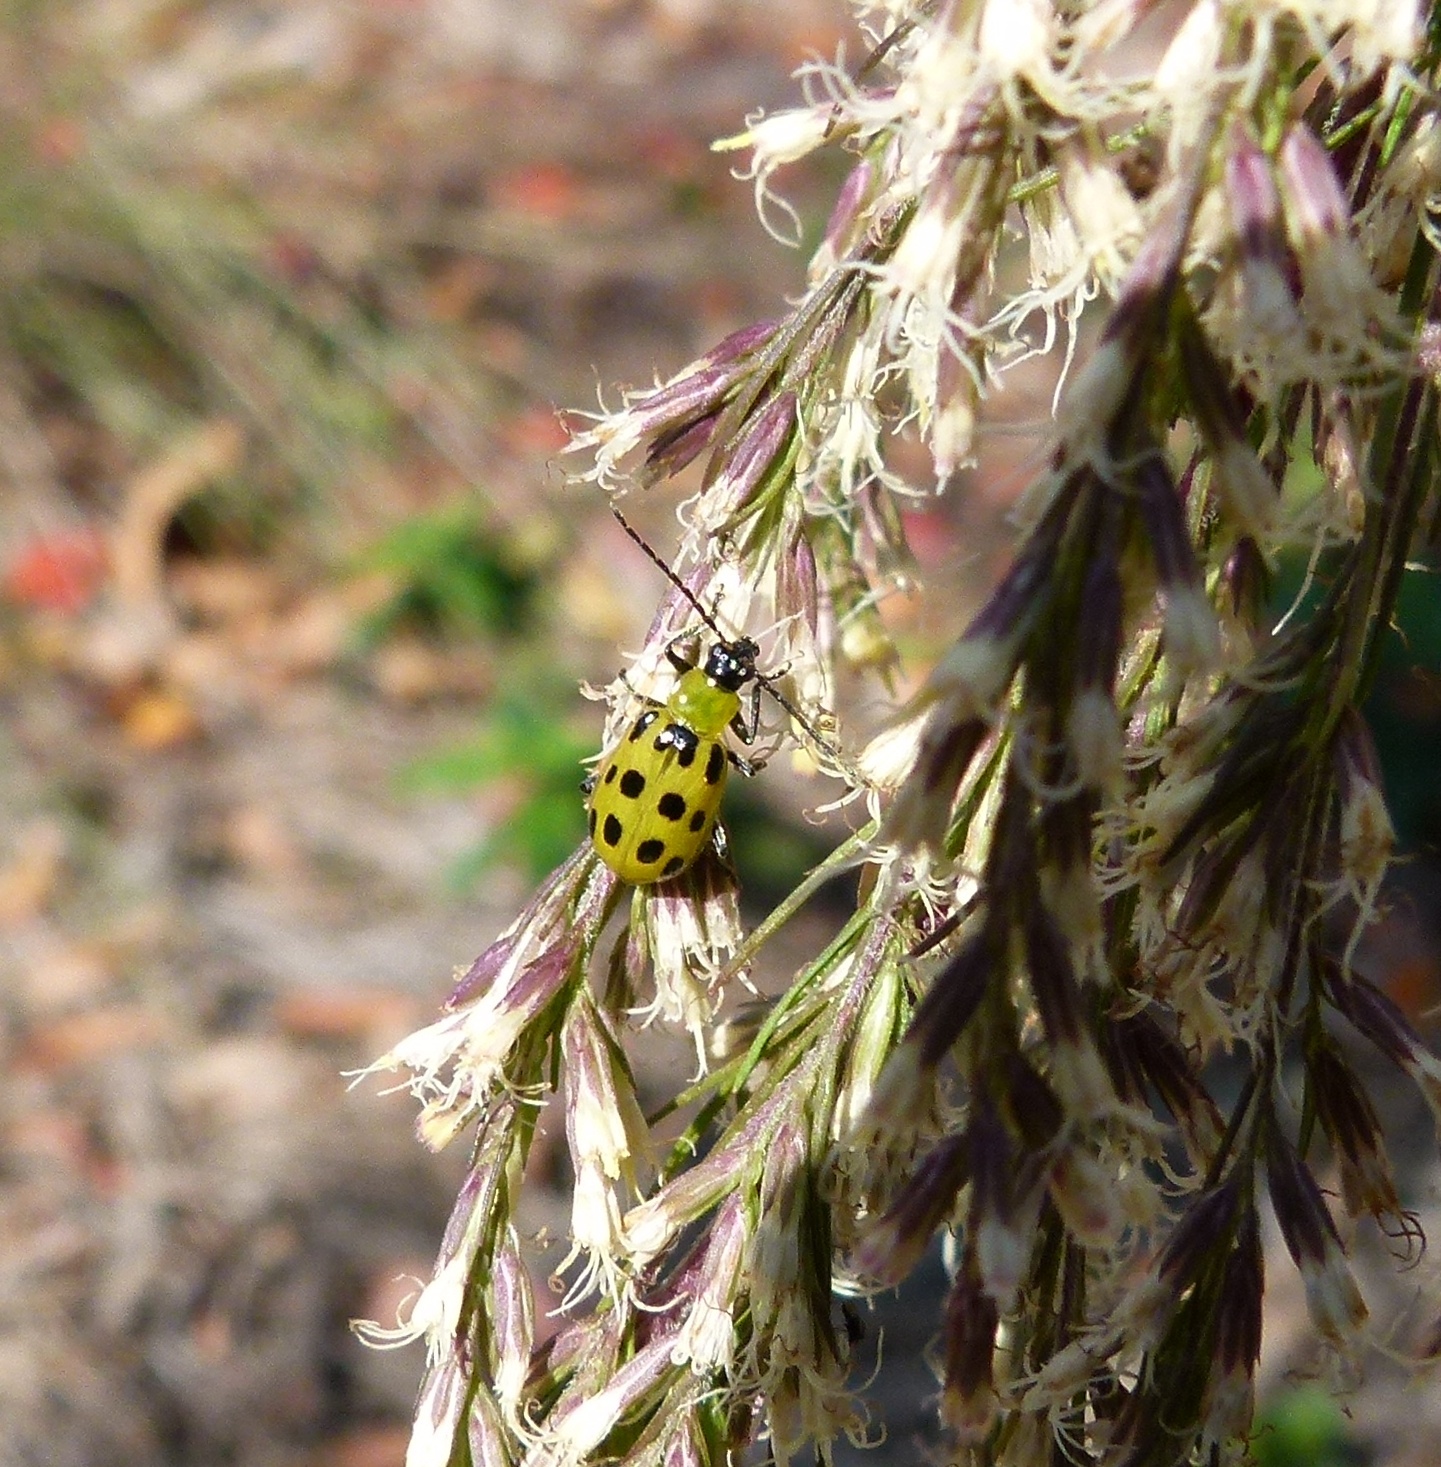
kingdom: Animalia
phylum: Arthropoda
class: Insecta
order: Coleoptera
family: Chrysomelidae
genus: Diabrotica
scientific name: Diabrotica undecimpunctata
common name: Spotted cucumber beetle
